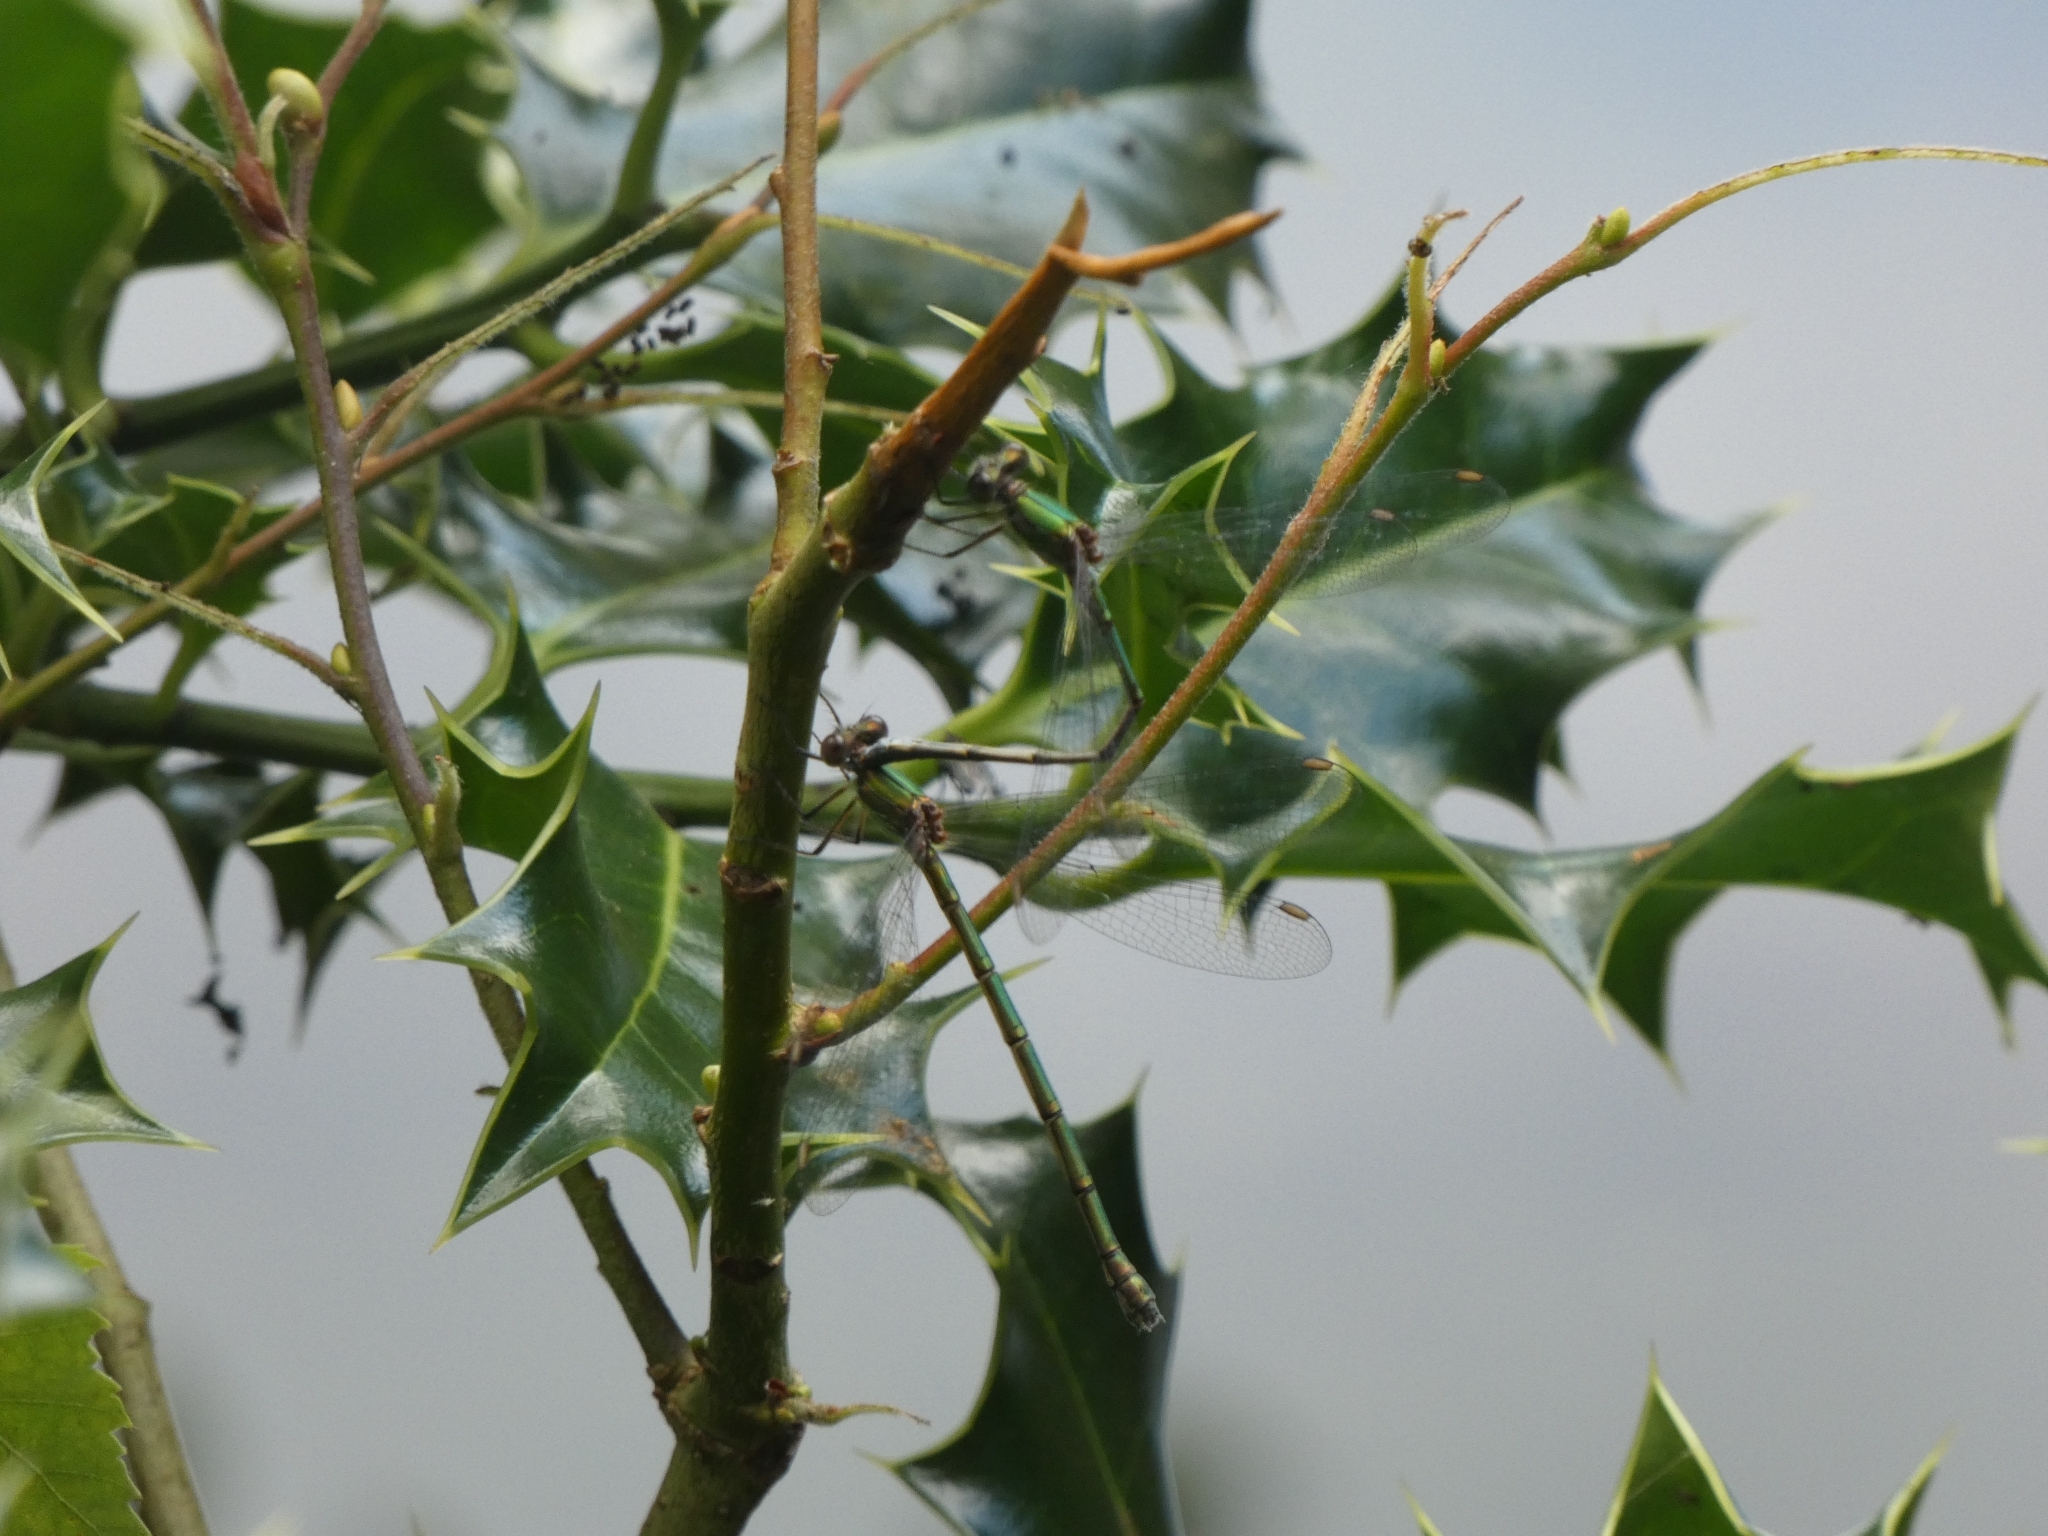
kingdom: Animalia
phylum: Arthropoda
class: Insecta
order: Odonata
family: Lestidae
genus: Chalcolestes
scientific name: Chalcolestes viridis
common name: Green emerald damselfly
